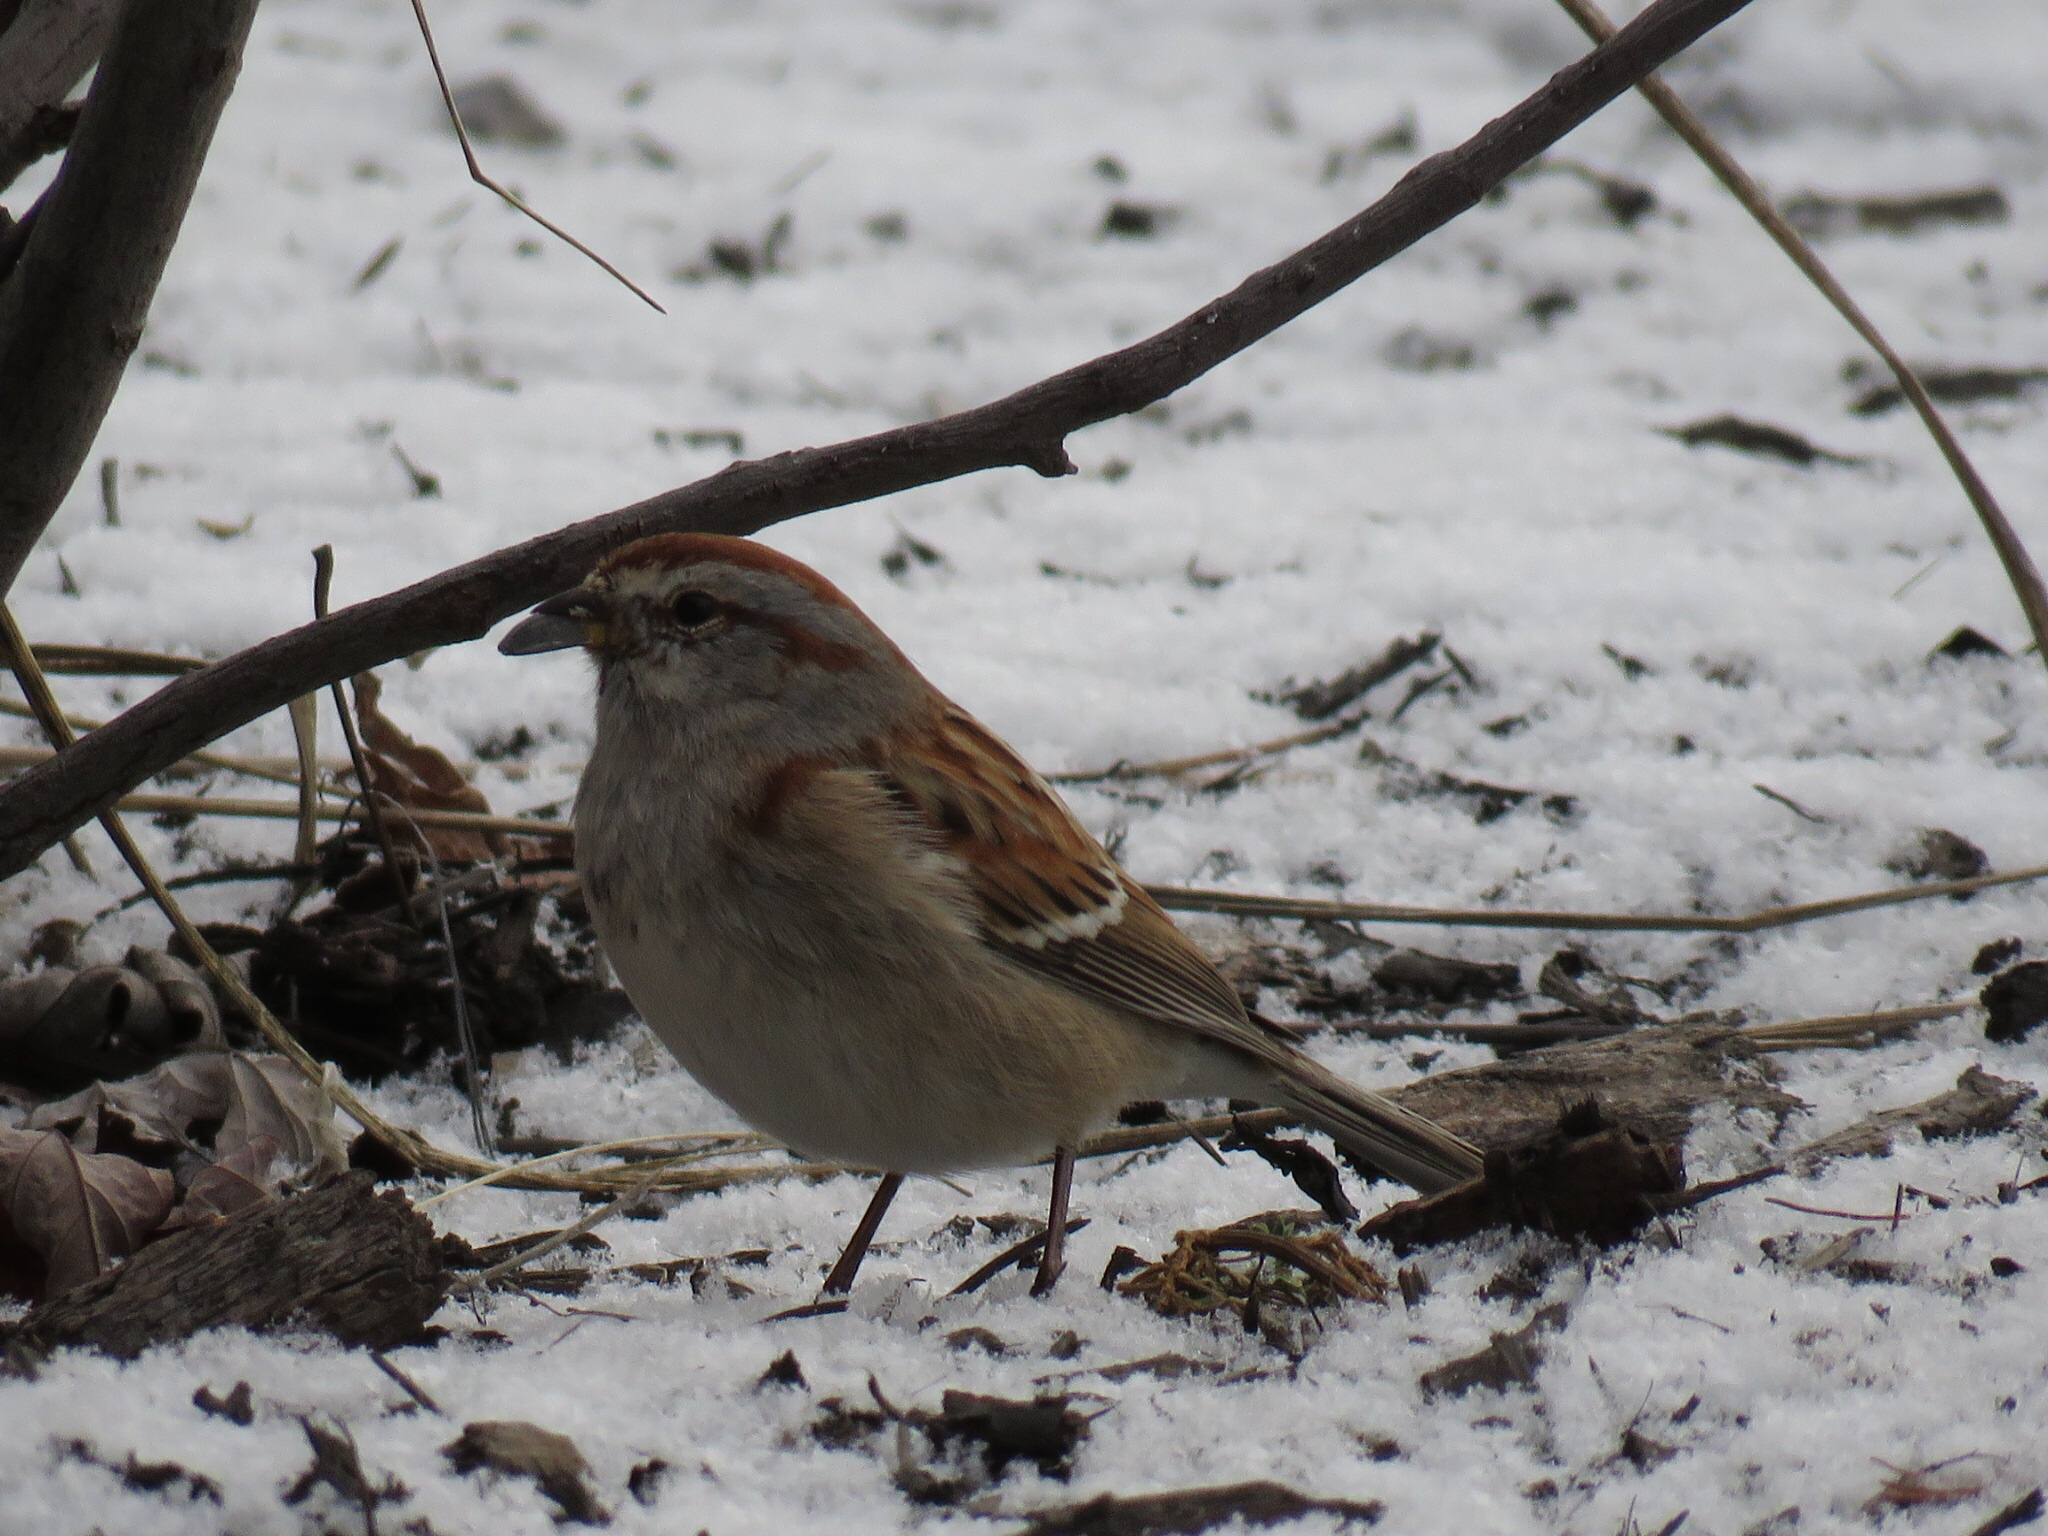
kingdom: Animalia
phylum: Chordata
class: Aves
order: Passeriformes
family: Passerellidae
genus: Spizelloides
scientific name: Spizelloides arborea
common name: American tree sparrow
